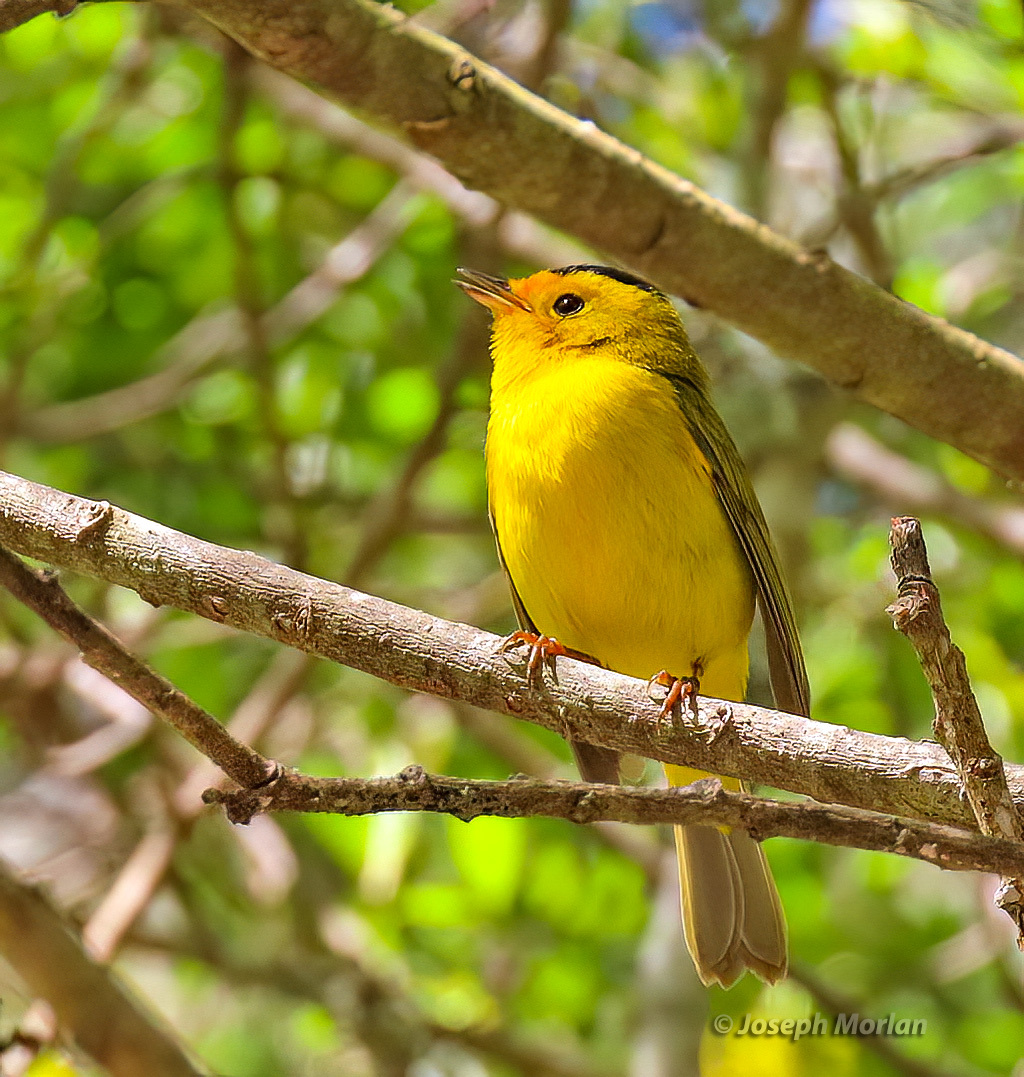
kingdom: Animalia
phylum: Chordata
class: Aves
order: Passeriformes
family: Parulidae
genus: Cardellina
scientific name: Cardellina pusilla
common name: Wilson's warbler
